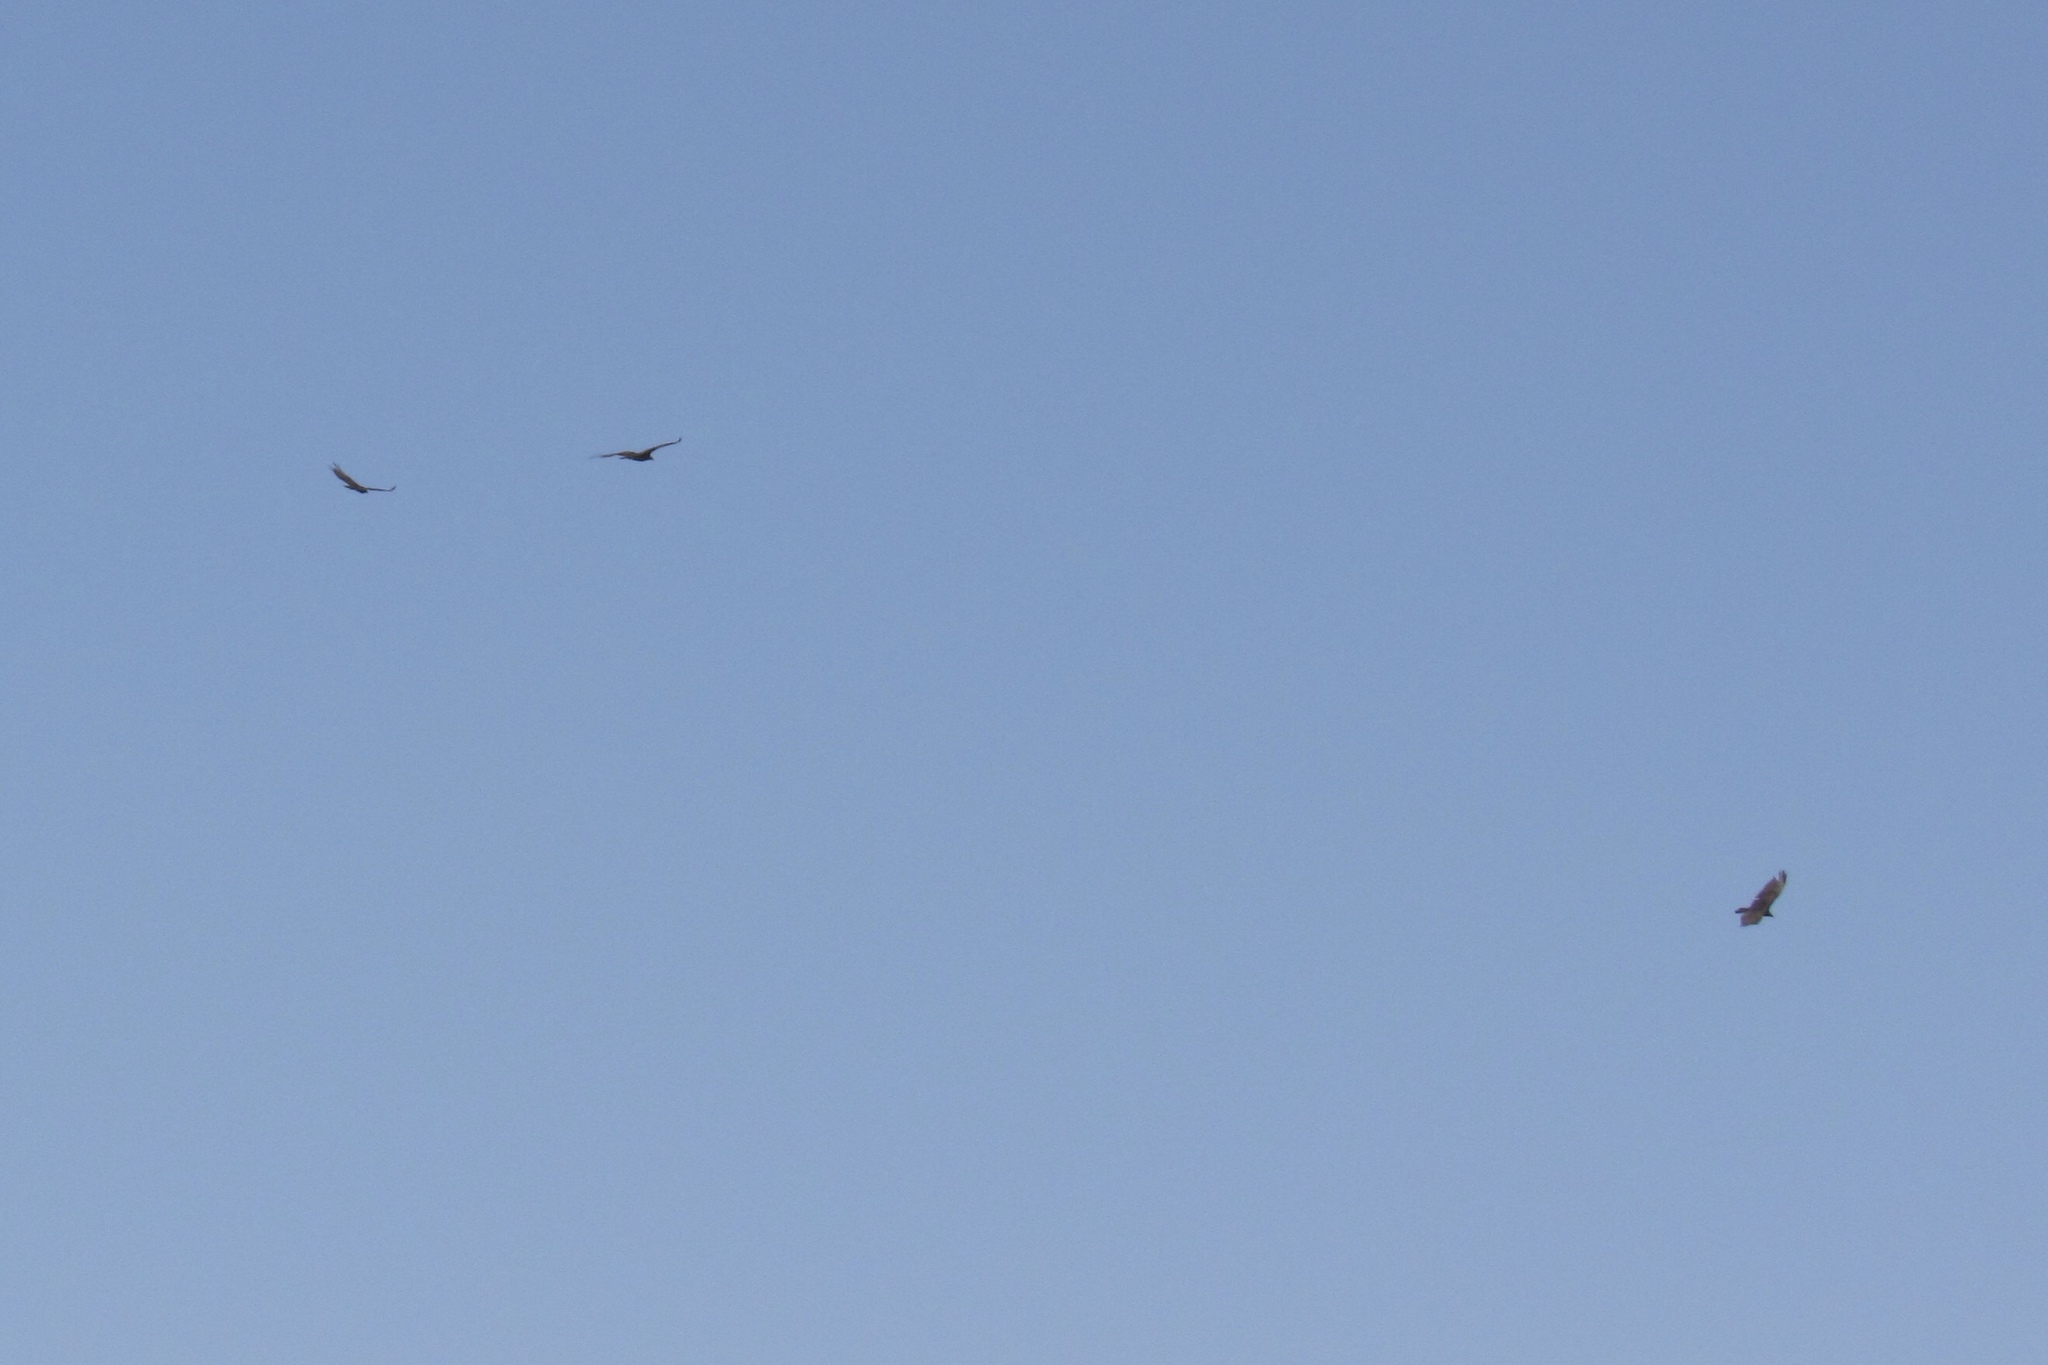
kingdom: Animalia
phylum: Chordata
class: Aves
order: Accipitriformes
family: Accipitridae
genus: Buteo
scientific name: Buteo jamaicensis
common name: Red-tailed hawk
